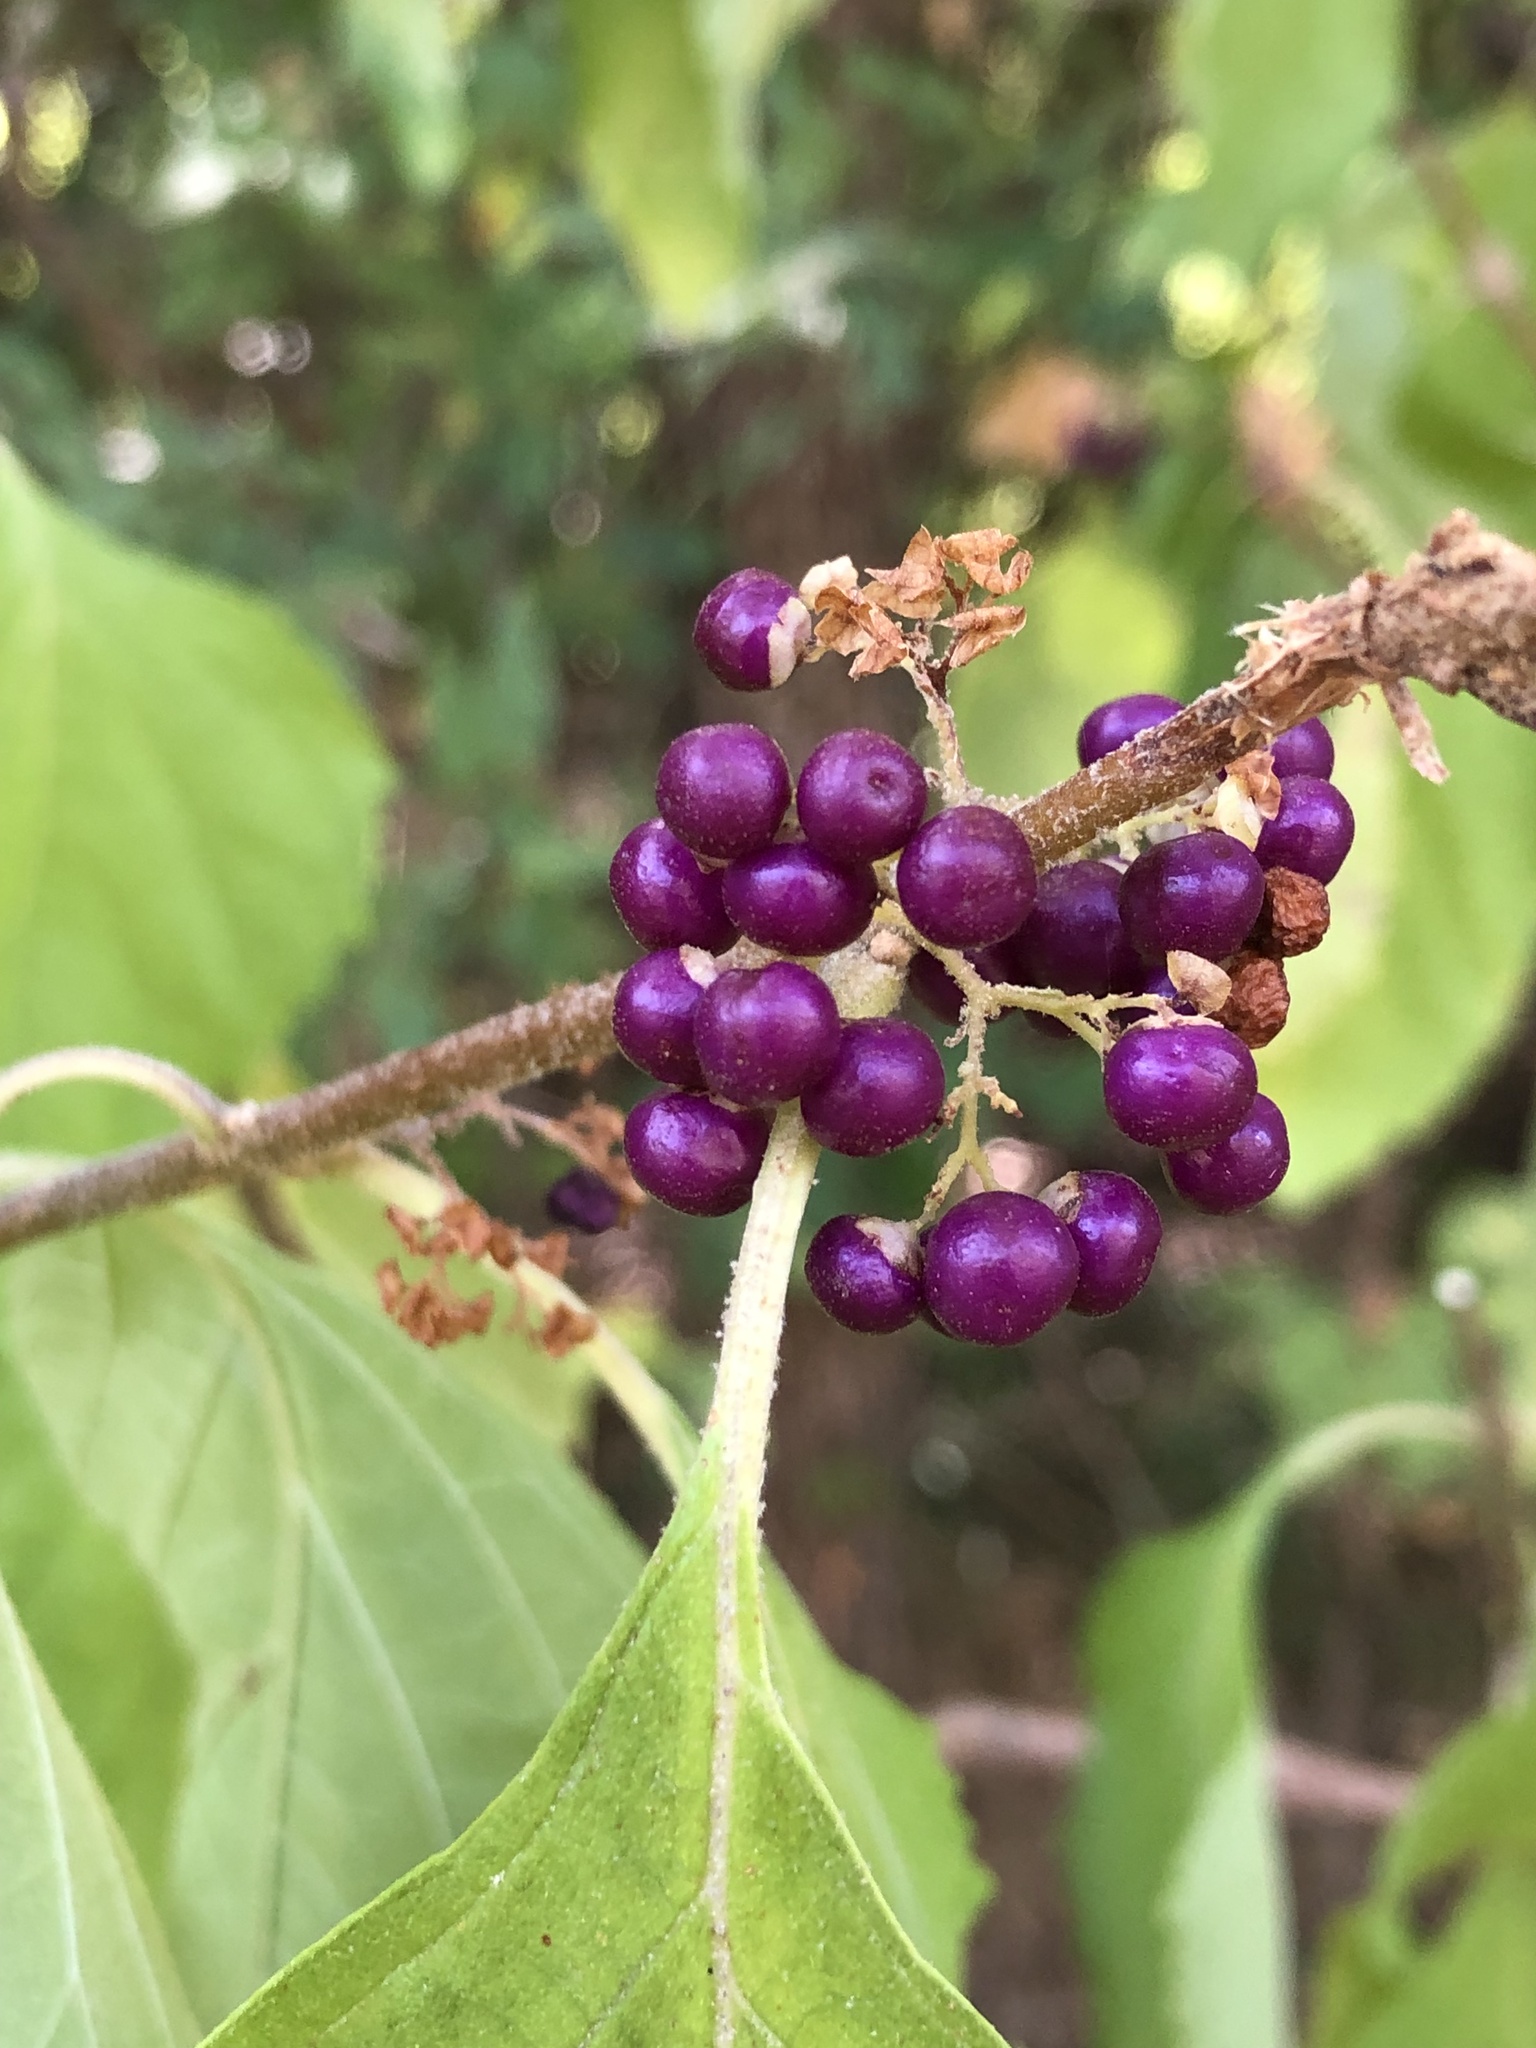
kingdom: Plantae
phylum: Tracheophyta
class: Magnoliopsida
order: Lamiales
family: Lamiaceae
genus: Callicarpa
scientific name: Callicarpa americana
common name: American beautyberry
